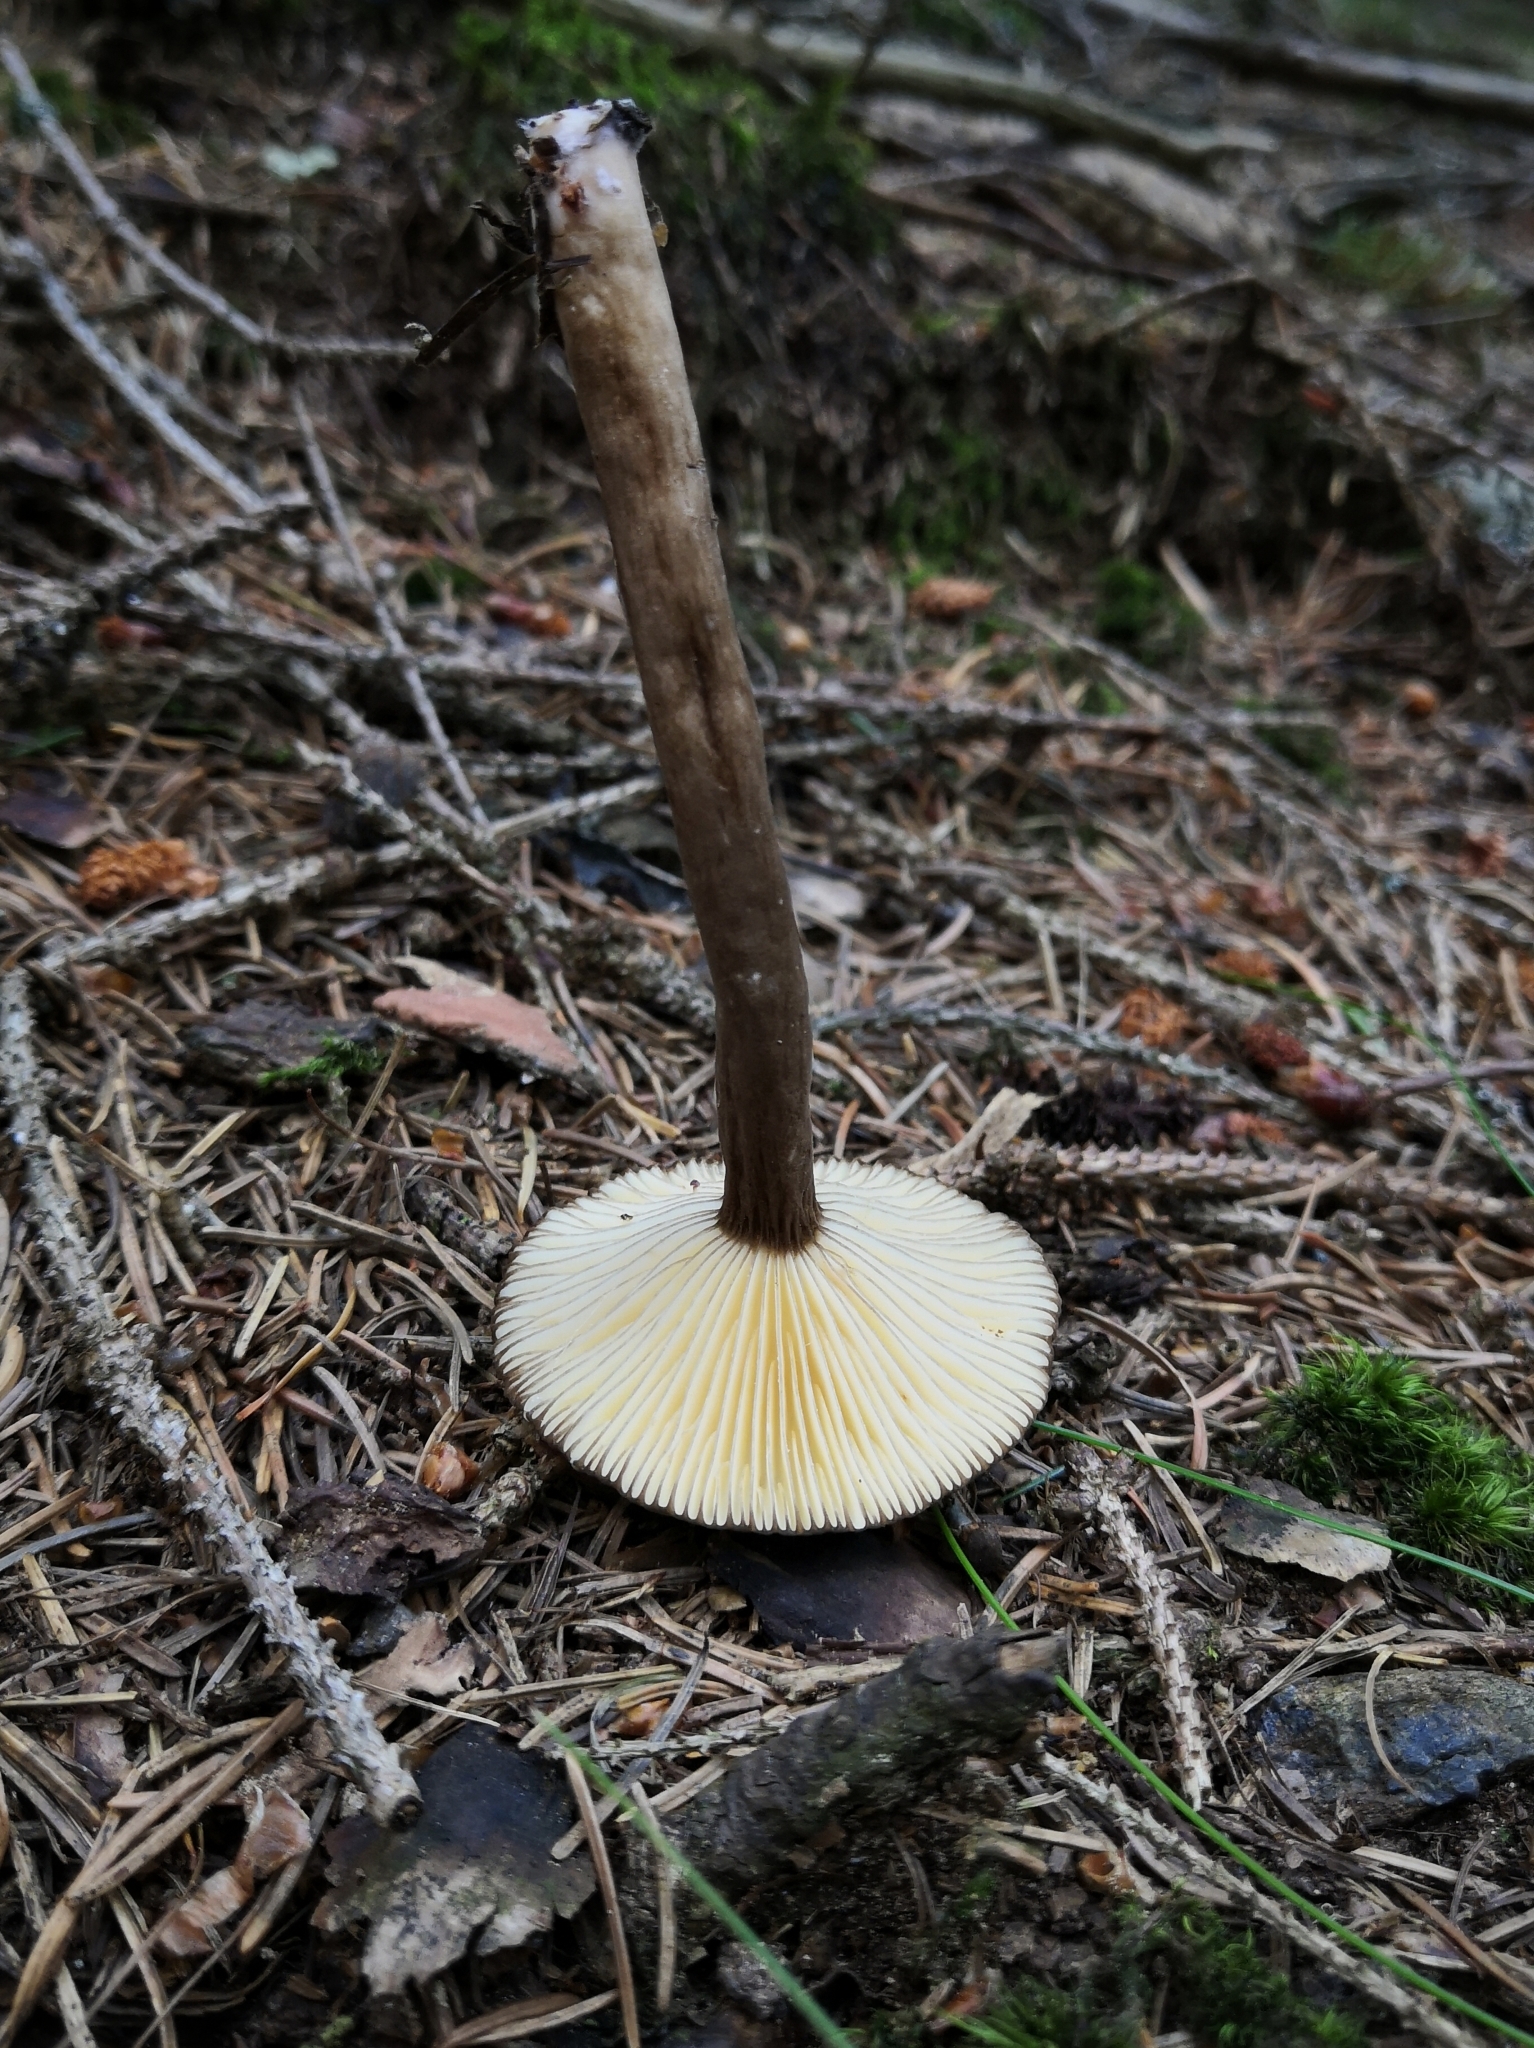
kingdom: Fungi
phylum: Basidiomycota
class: Agaricomycetes
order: Russulales
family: Russulaceae
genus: Lactarius
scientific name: Lactarius lignyotus
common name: Velvet milkcap
